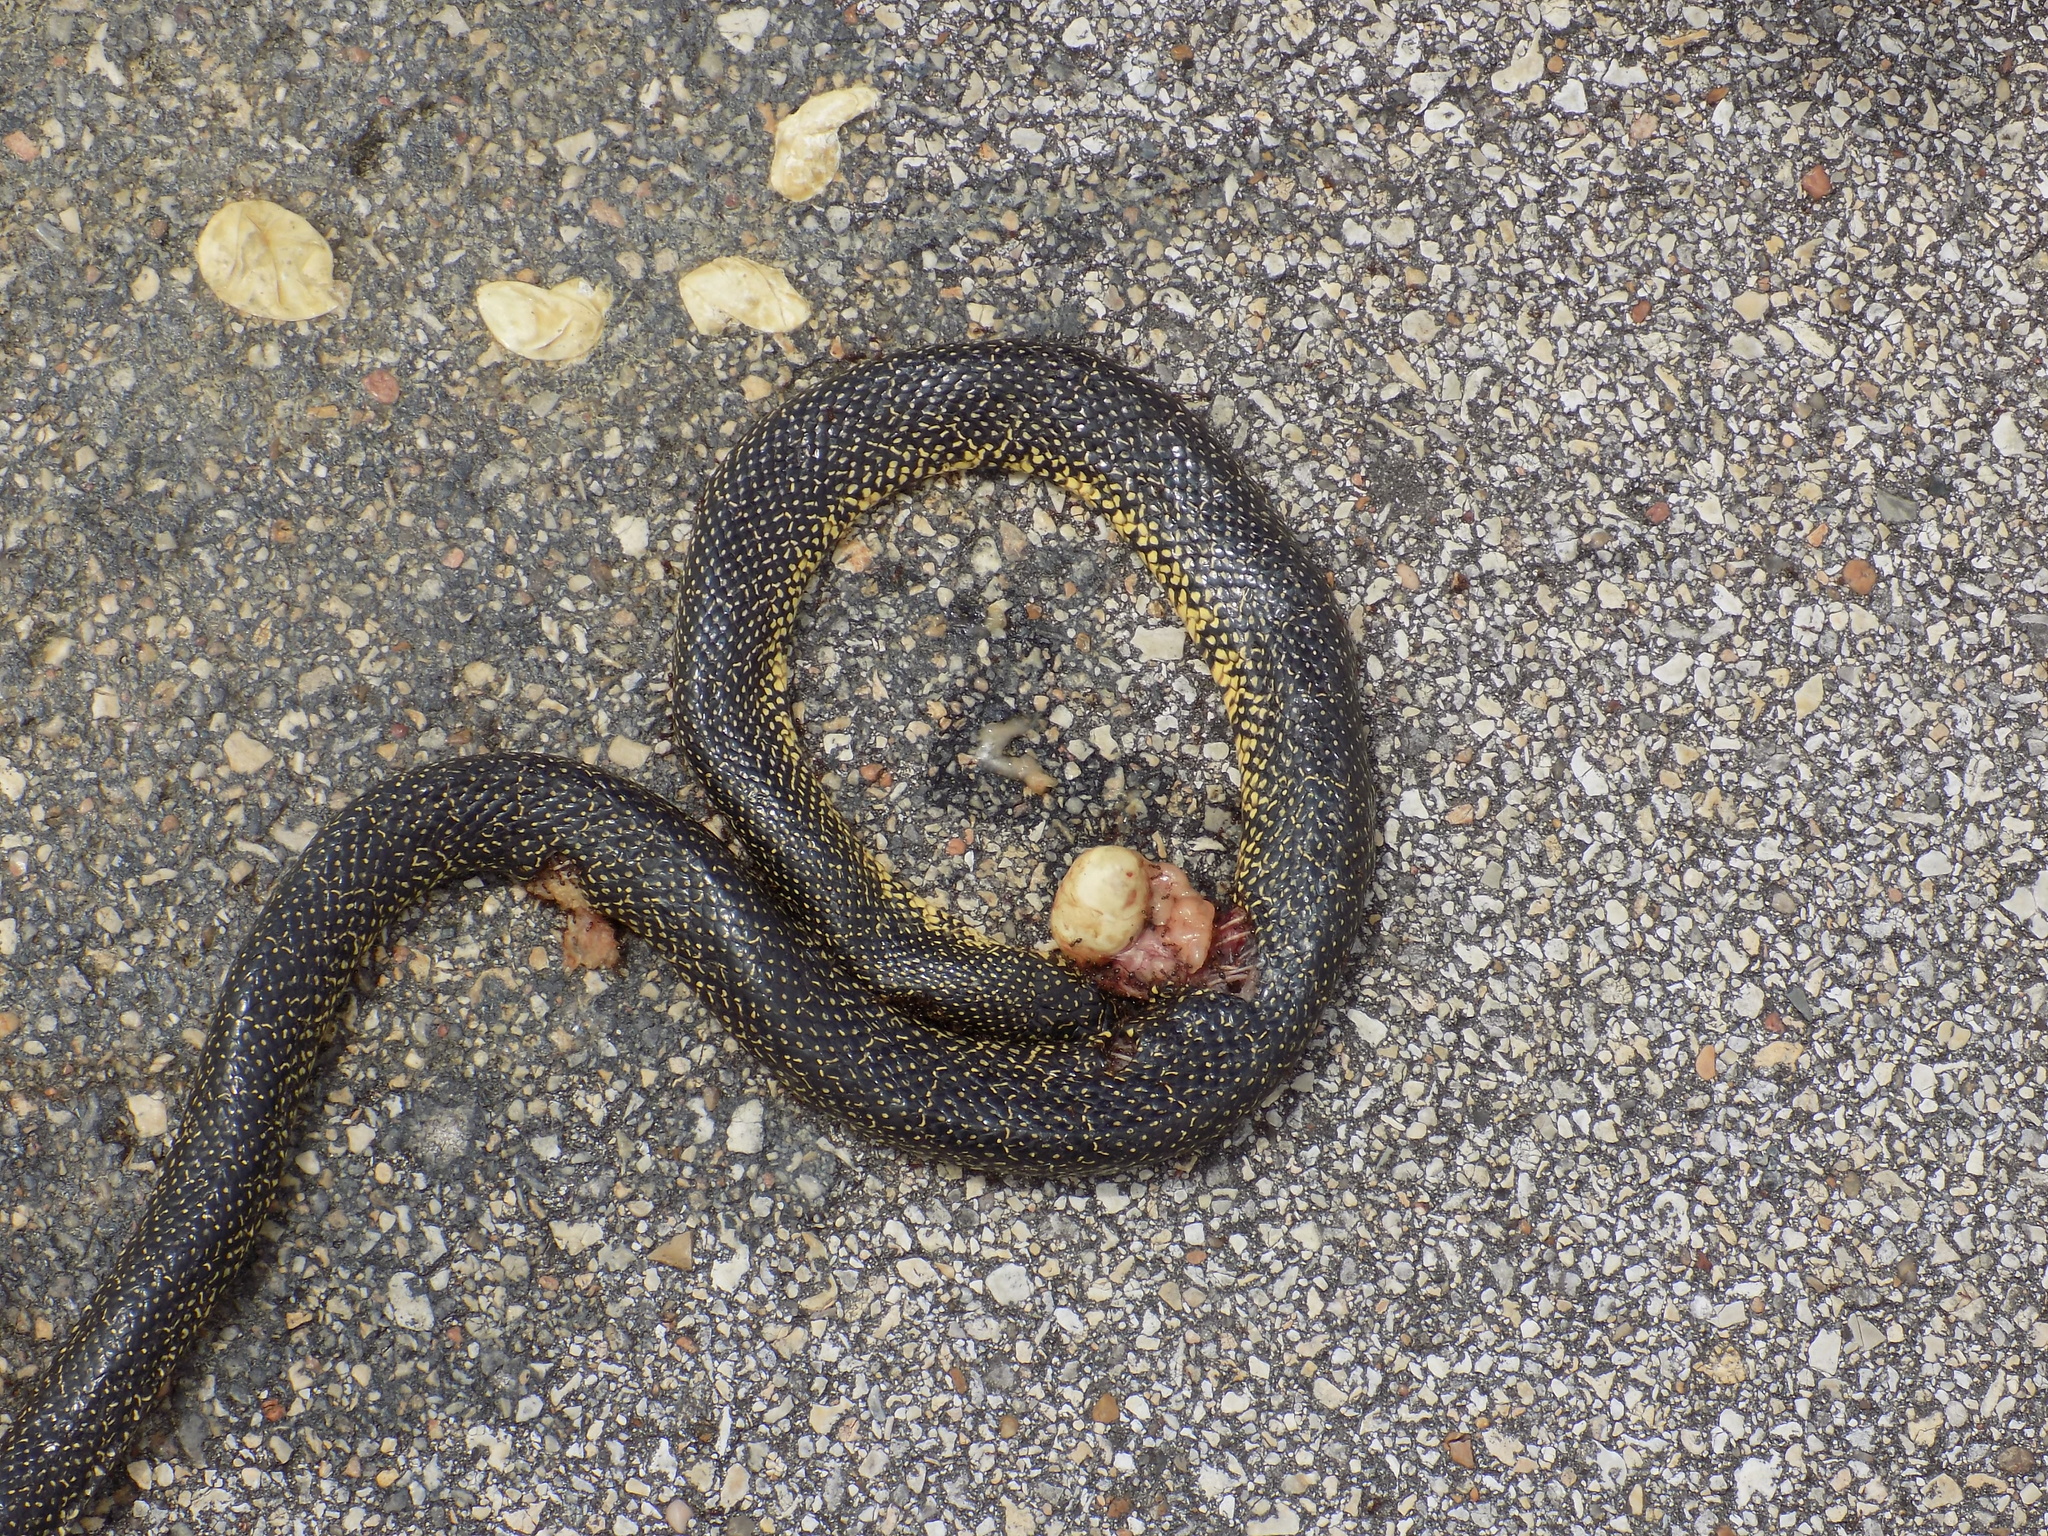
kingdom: Animalia
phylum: Chordata
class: Squamata
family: Colubridae
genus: Lampropeltis
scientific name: Lampropeltis holbrooki
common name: Speckled kingsnake
